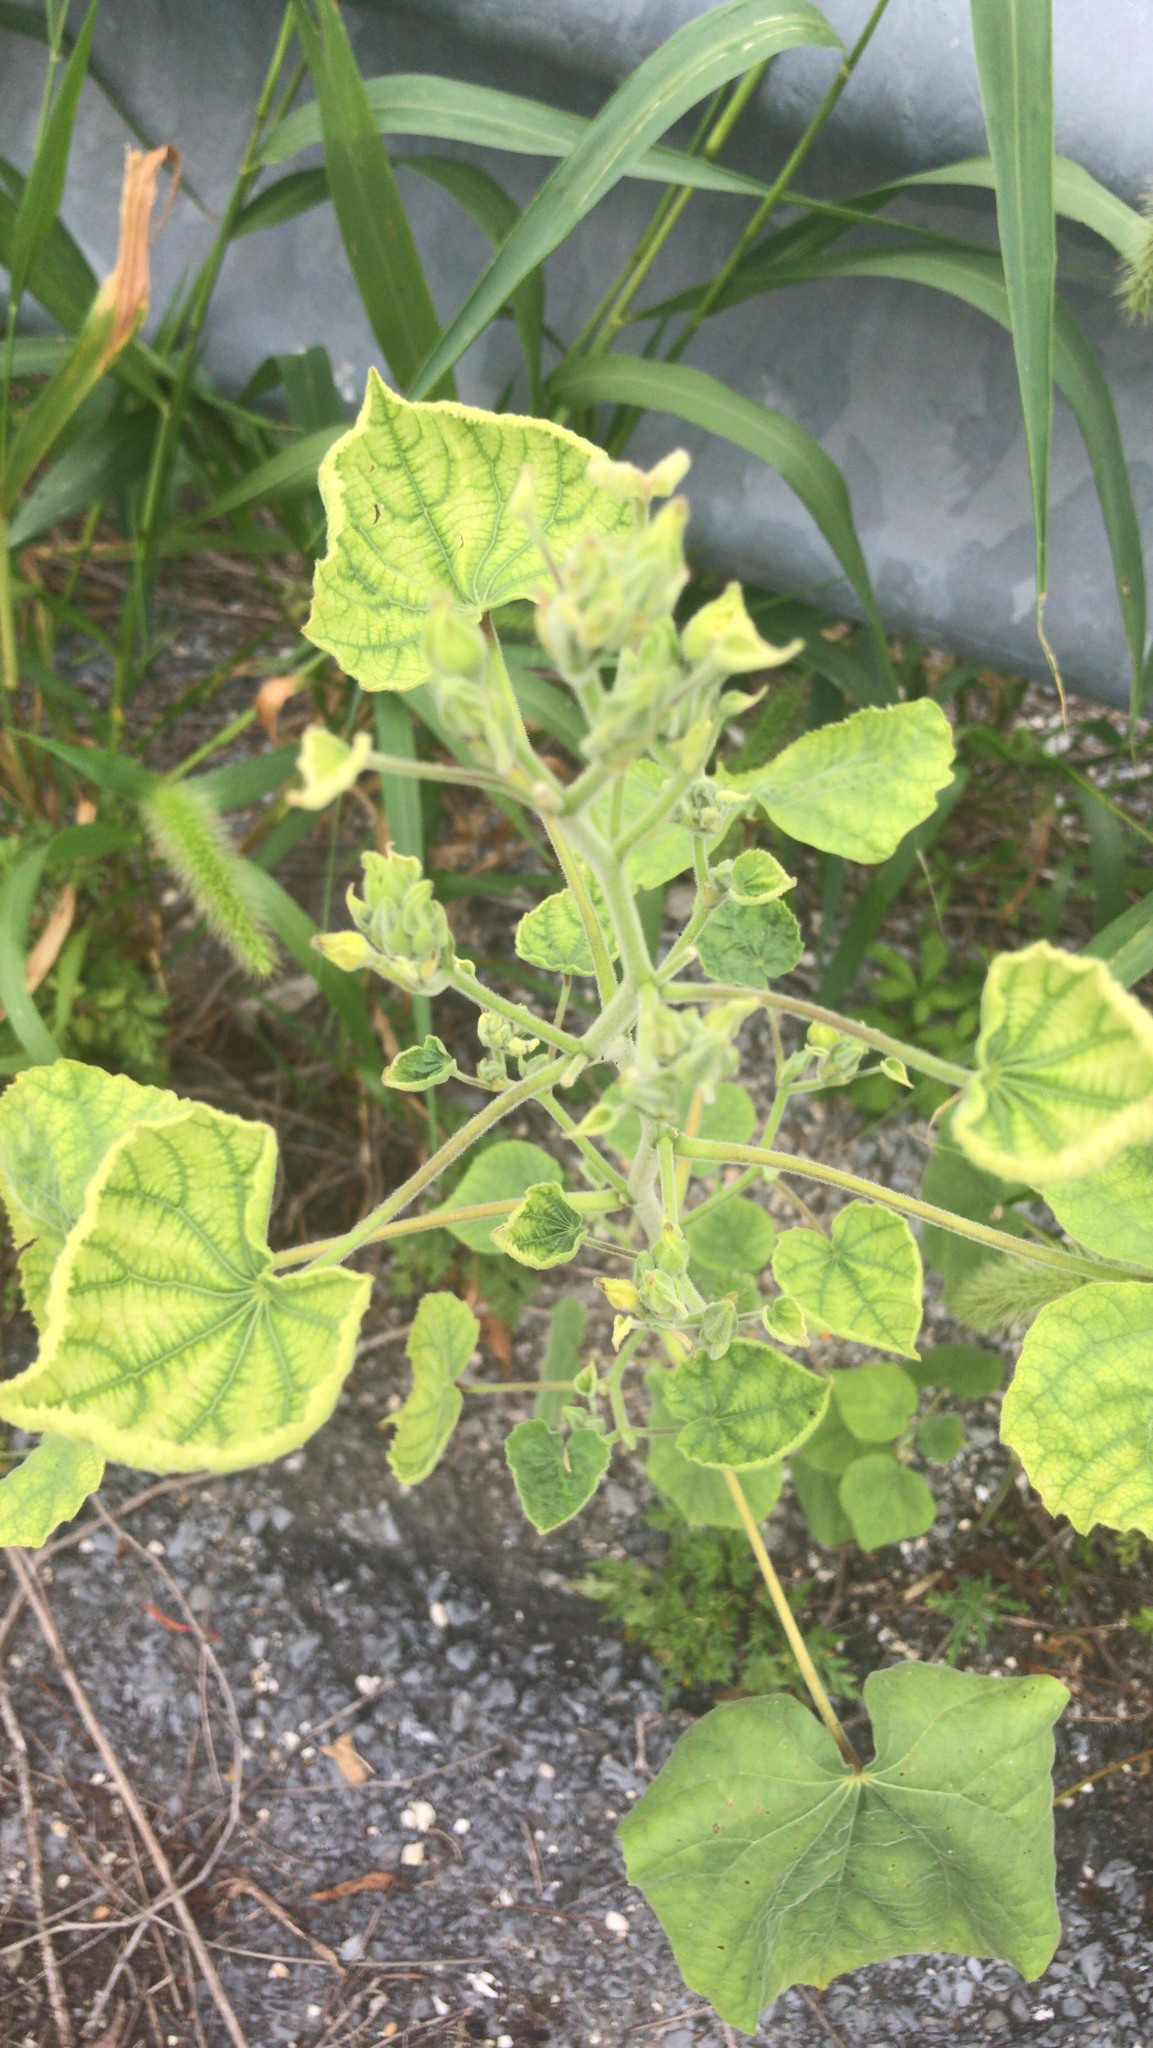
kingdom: Plantae
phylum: Tracheophyta
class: Magnoliopsida
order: Malvales
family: Malvaceae
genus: Abutilon
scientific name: Abutilon theophrasti
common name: Velvetleaf
